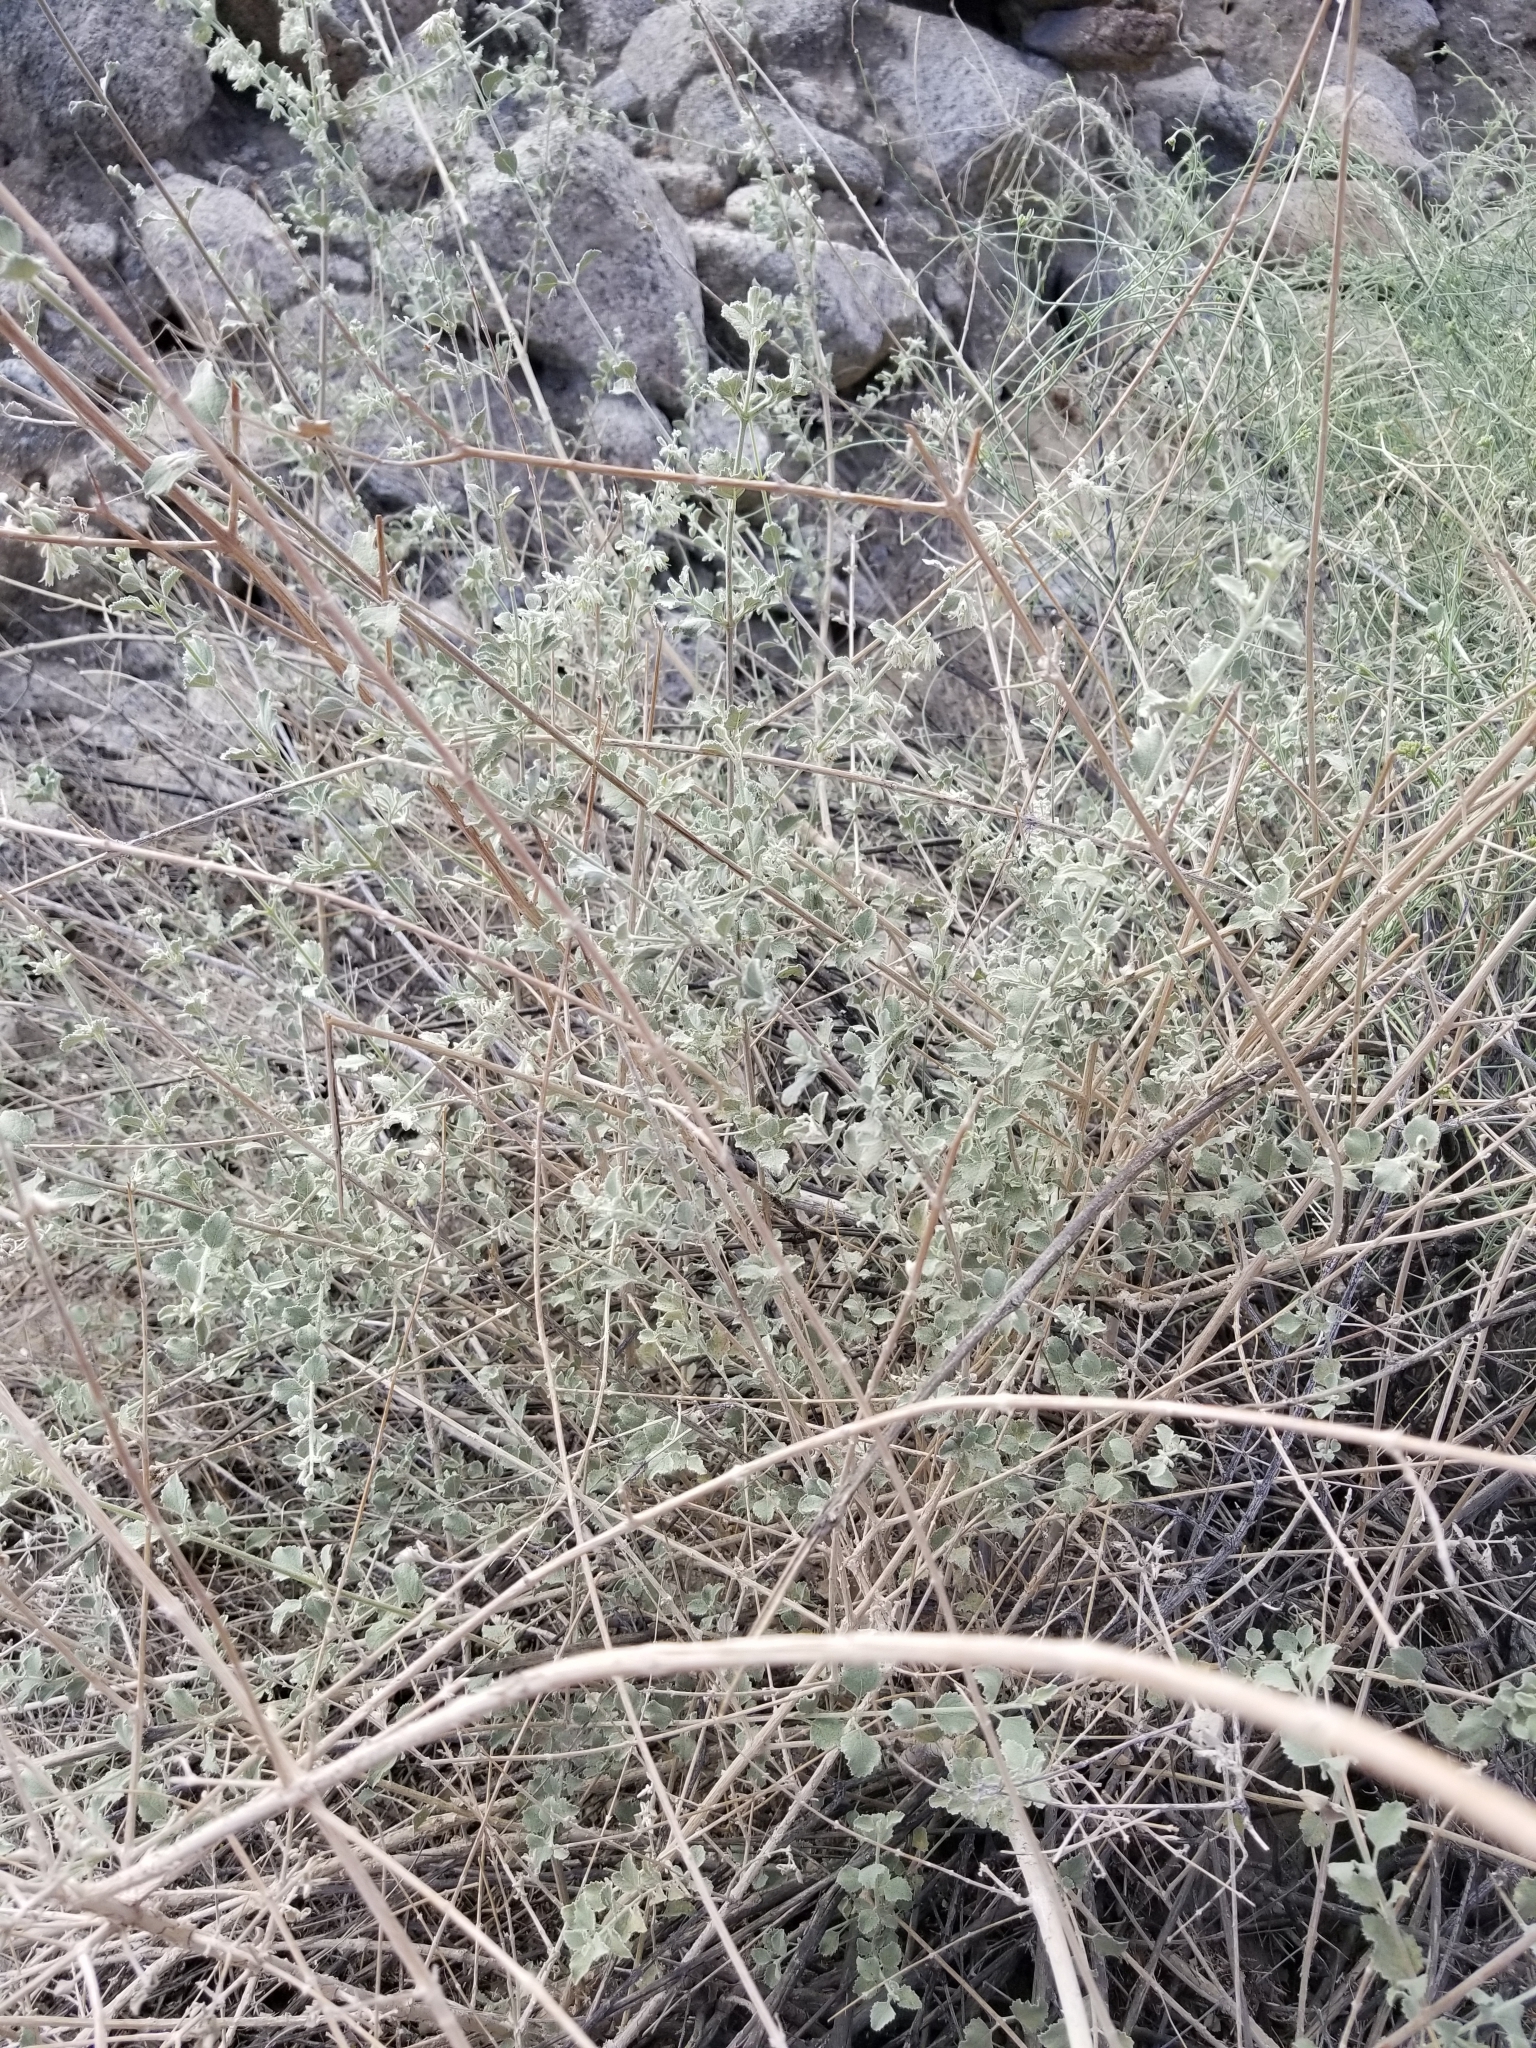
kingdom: Plantae
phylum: Tracheophyta
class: Magnoliopsida
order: Lamiales
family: Lamiaceae
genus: Condea
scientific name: Condea emoryi
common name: Chia
